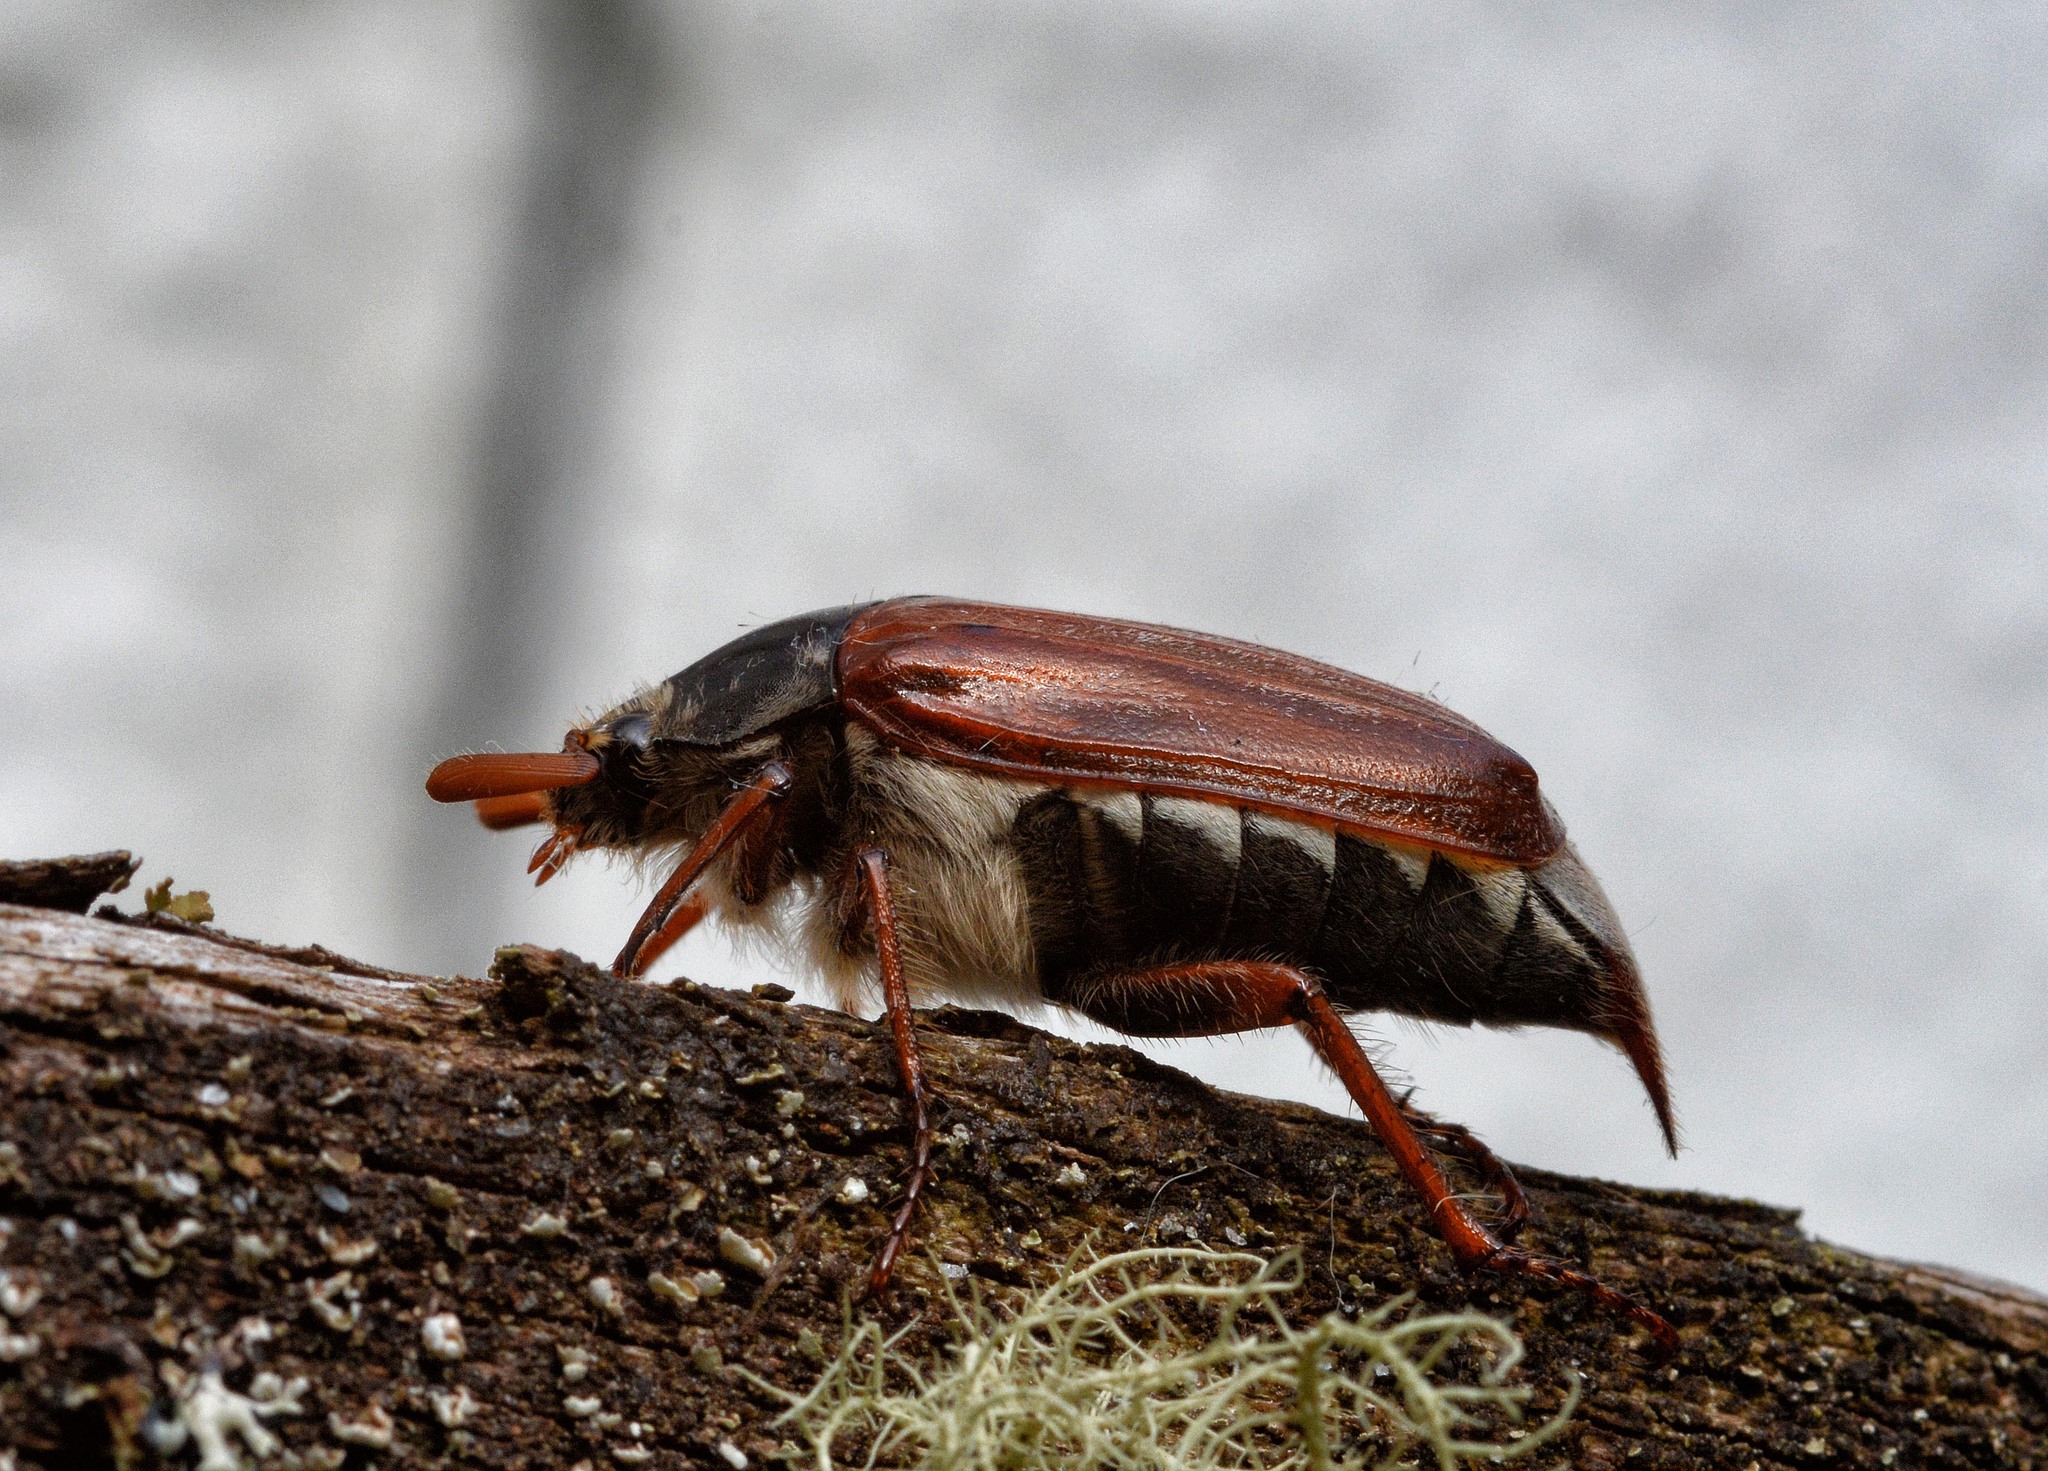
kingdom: Animalia
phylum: Arthropoda
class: Insecta
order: Coleoptera
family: Scarabaeidae
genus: Melolontha
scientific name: Melolontha melolontha
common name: Cockchafer maybeetle
